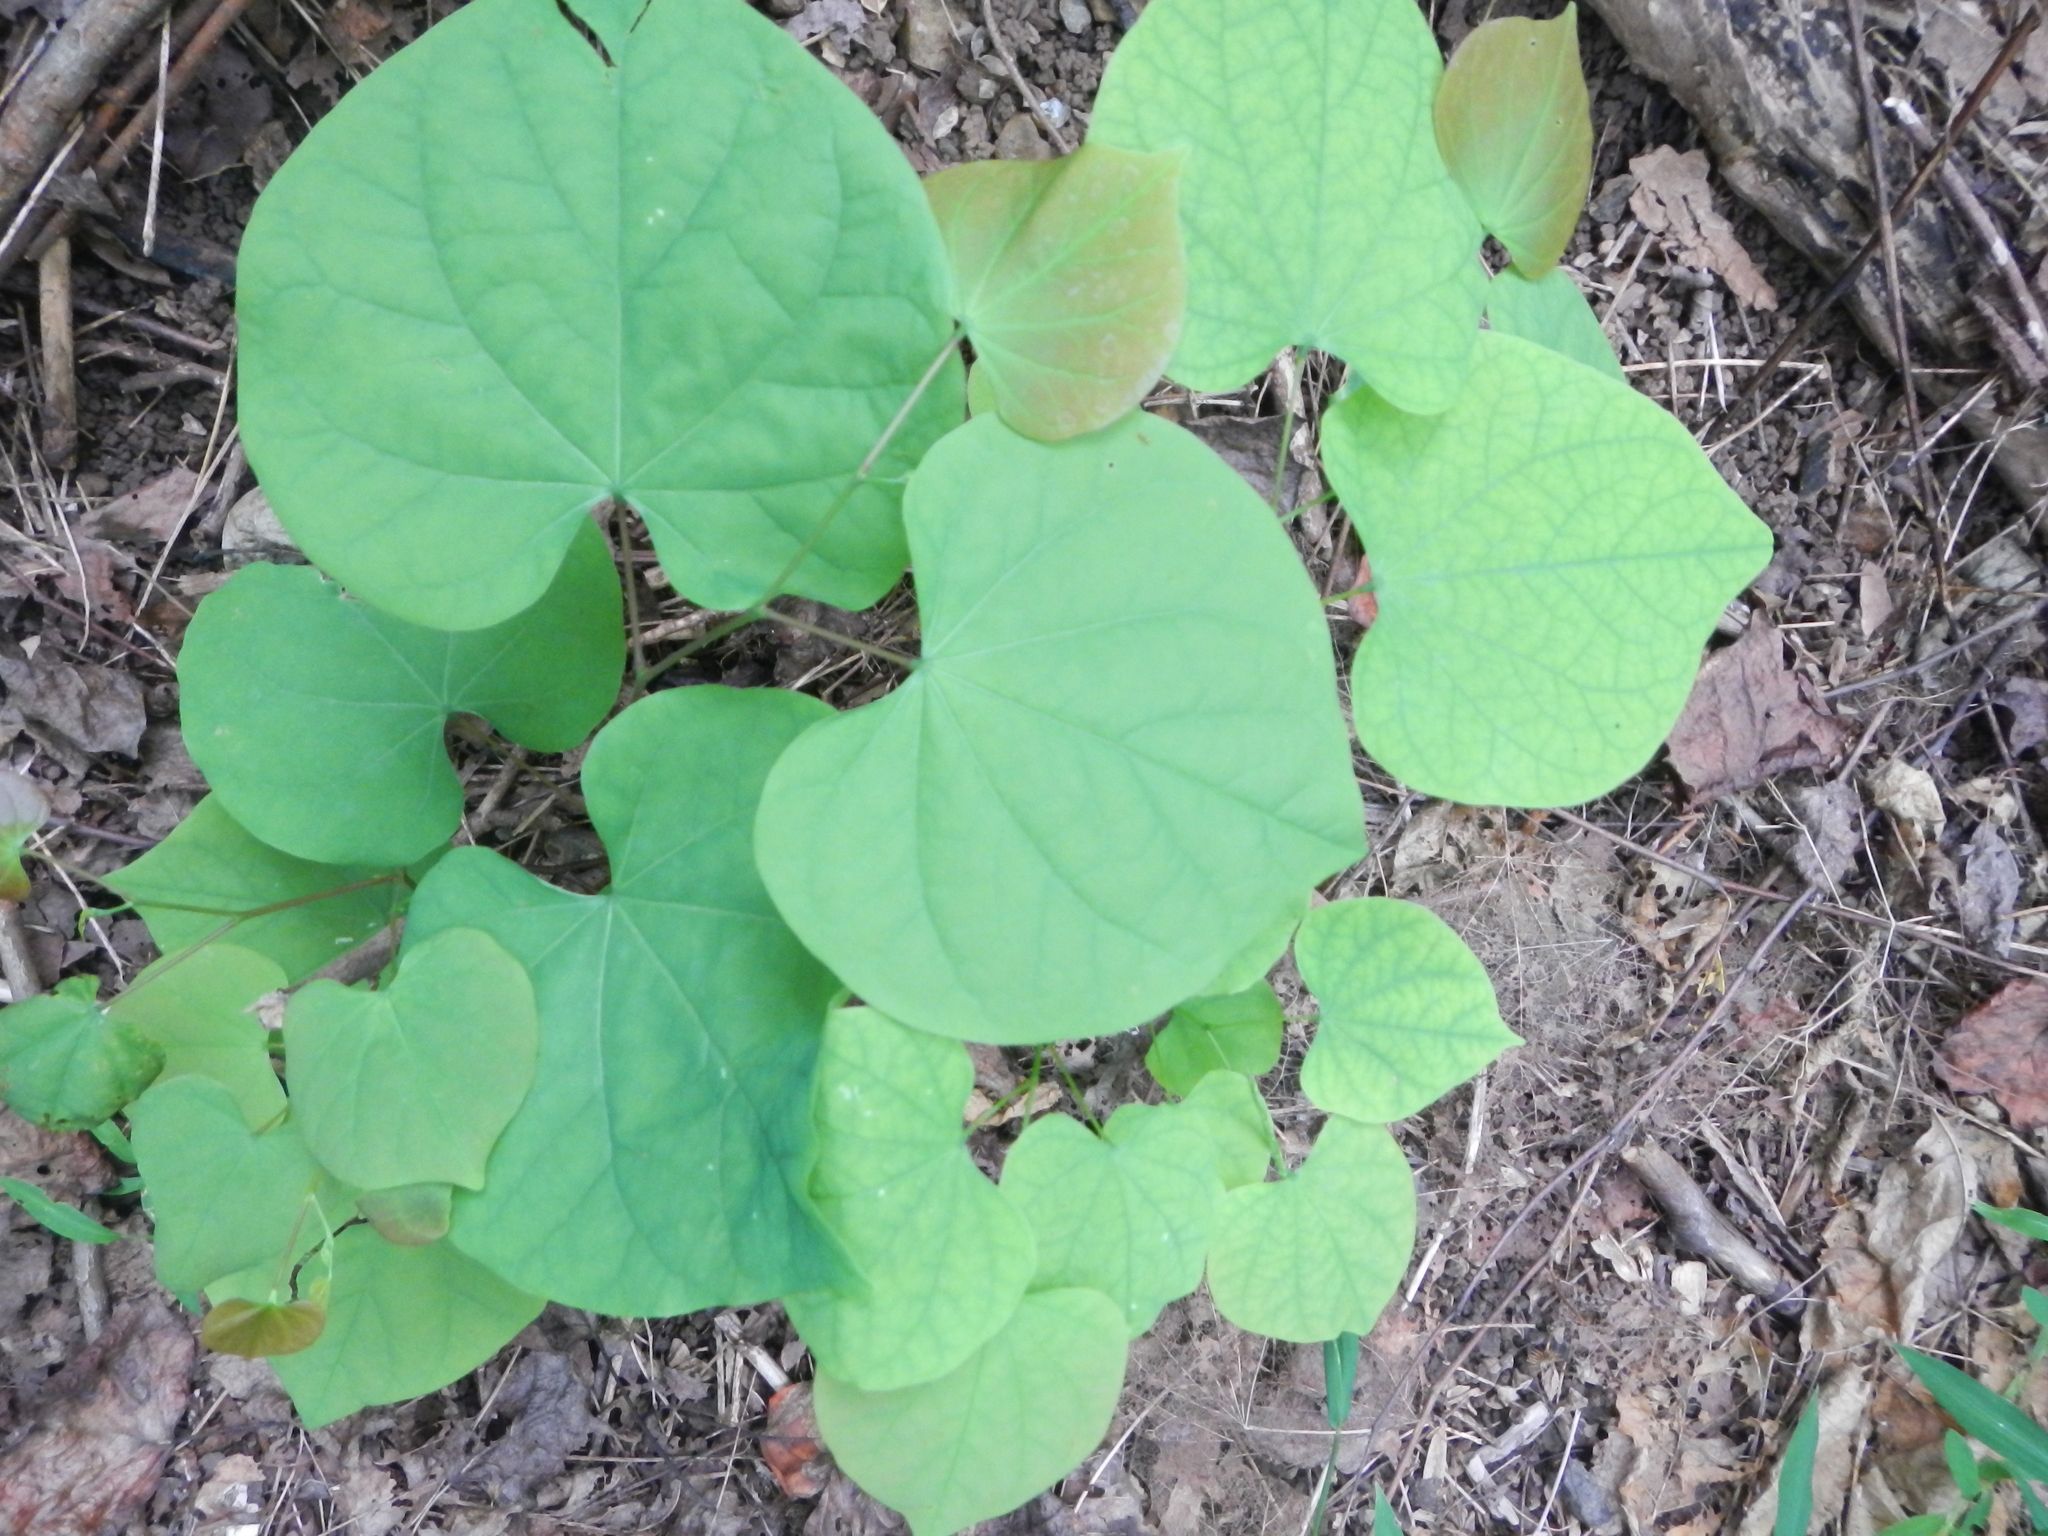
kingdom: Plantae
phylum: Tracheophyta
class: Magnoliopsida
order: Fabales
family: Fabaceae
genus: Cercis
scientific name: Cercis canadensis
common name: Eastern redbud
